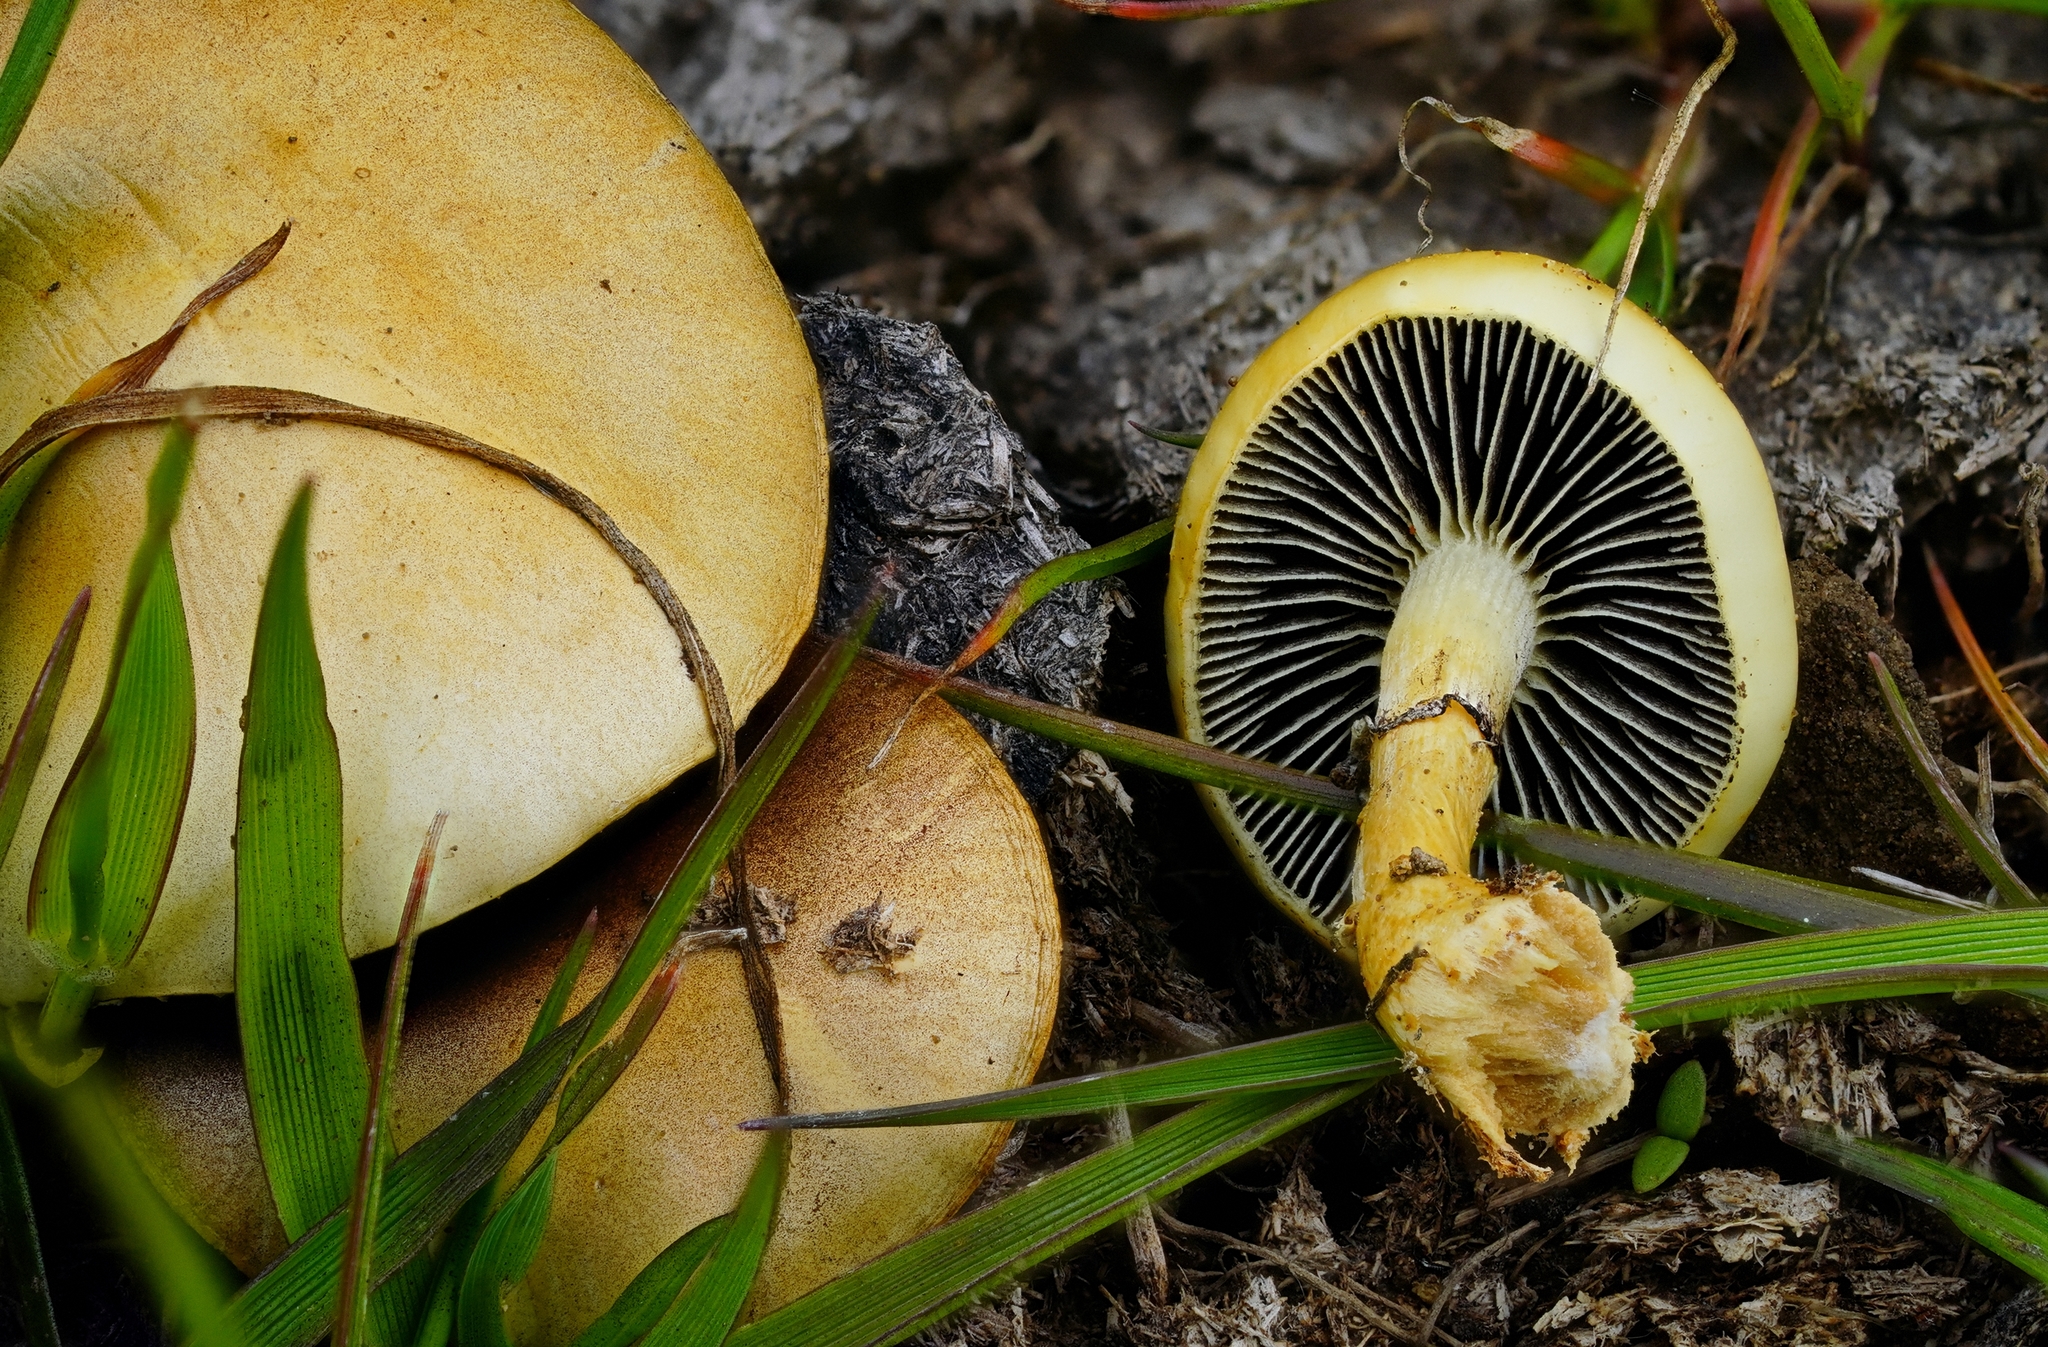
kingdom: Fungi
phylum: Basidiomycota
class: Agaricomycetes
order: Agaricales
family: Strophariaceae
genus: Protostropharia
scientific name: Protostropharia semiglobata
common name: Dung roundhead
